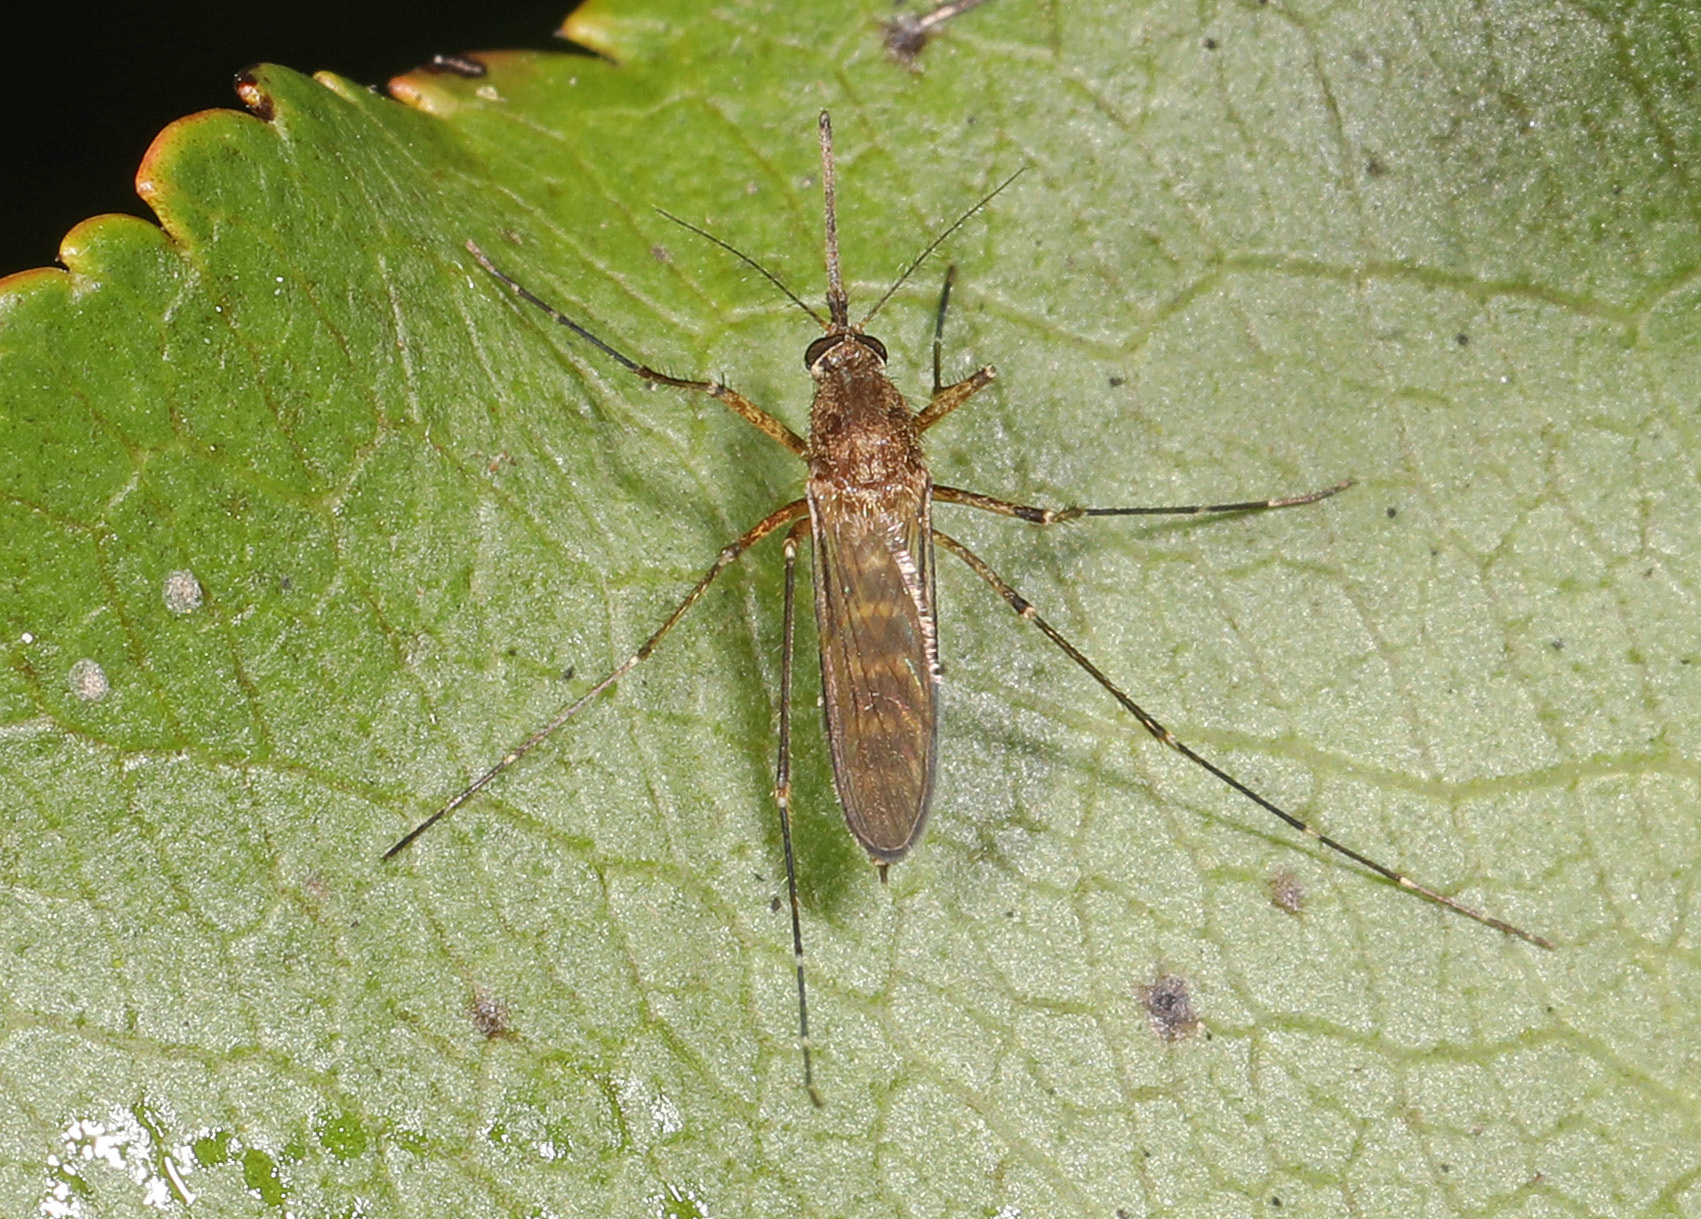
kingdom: Animalia
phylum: Arthropoda
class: Insecta
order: Diptera
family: Culicidae
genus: Aedes
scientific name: Aedes vexans
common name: Inland floodwater mosquito
